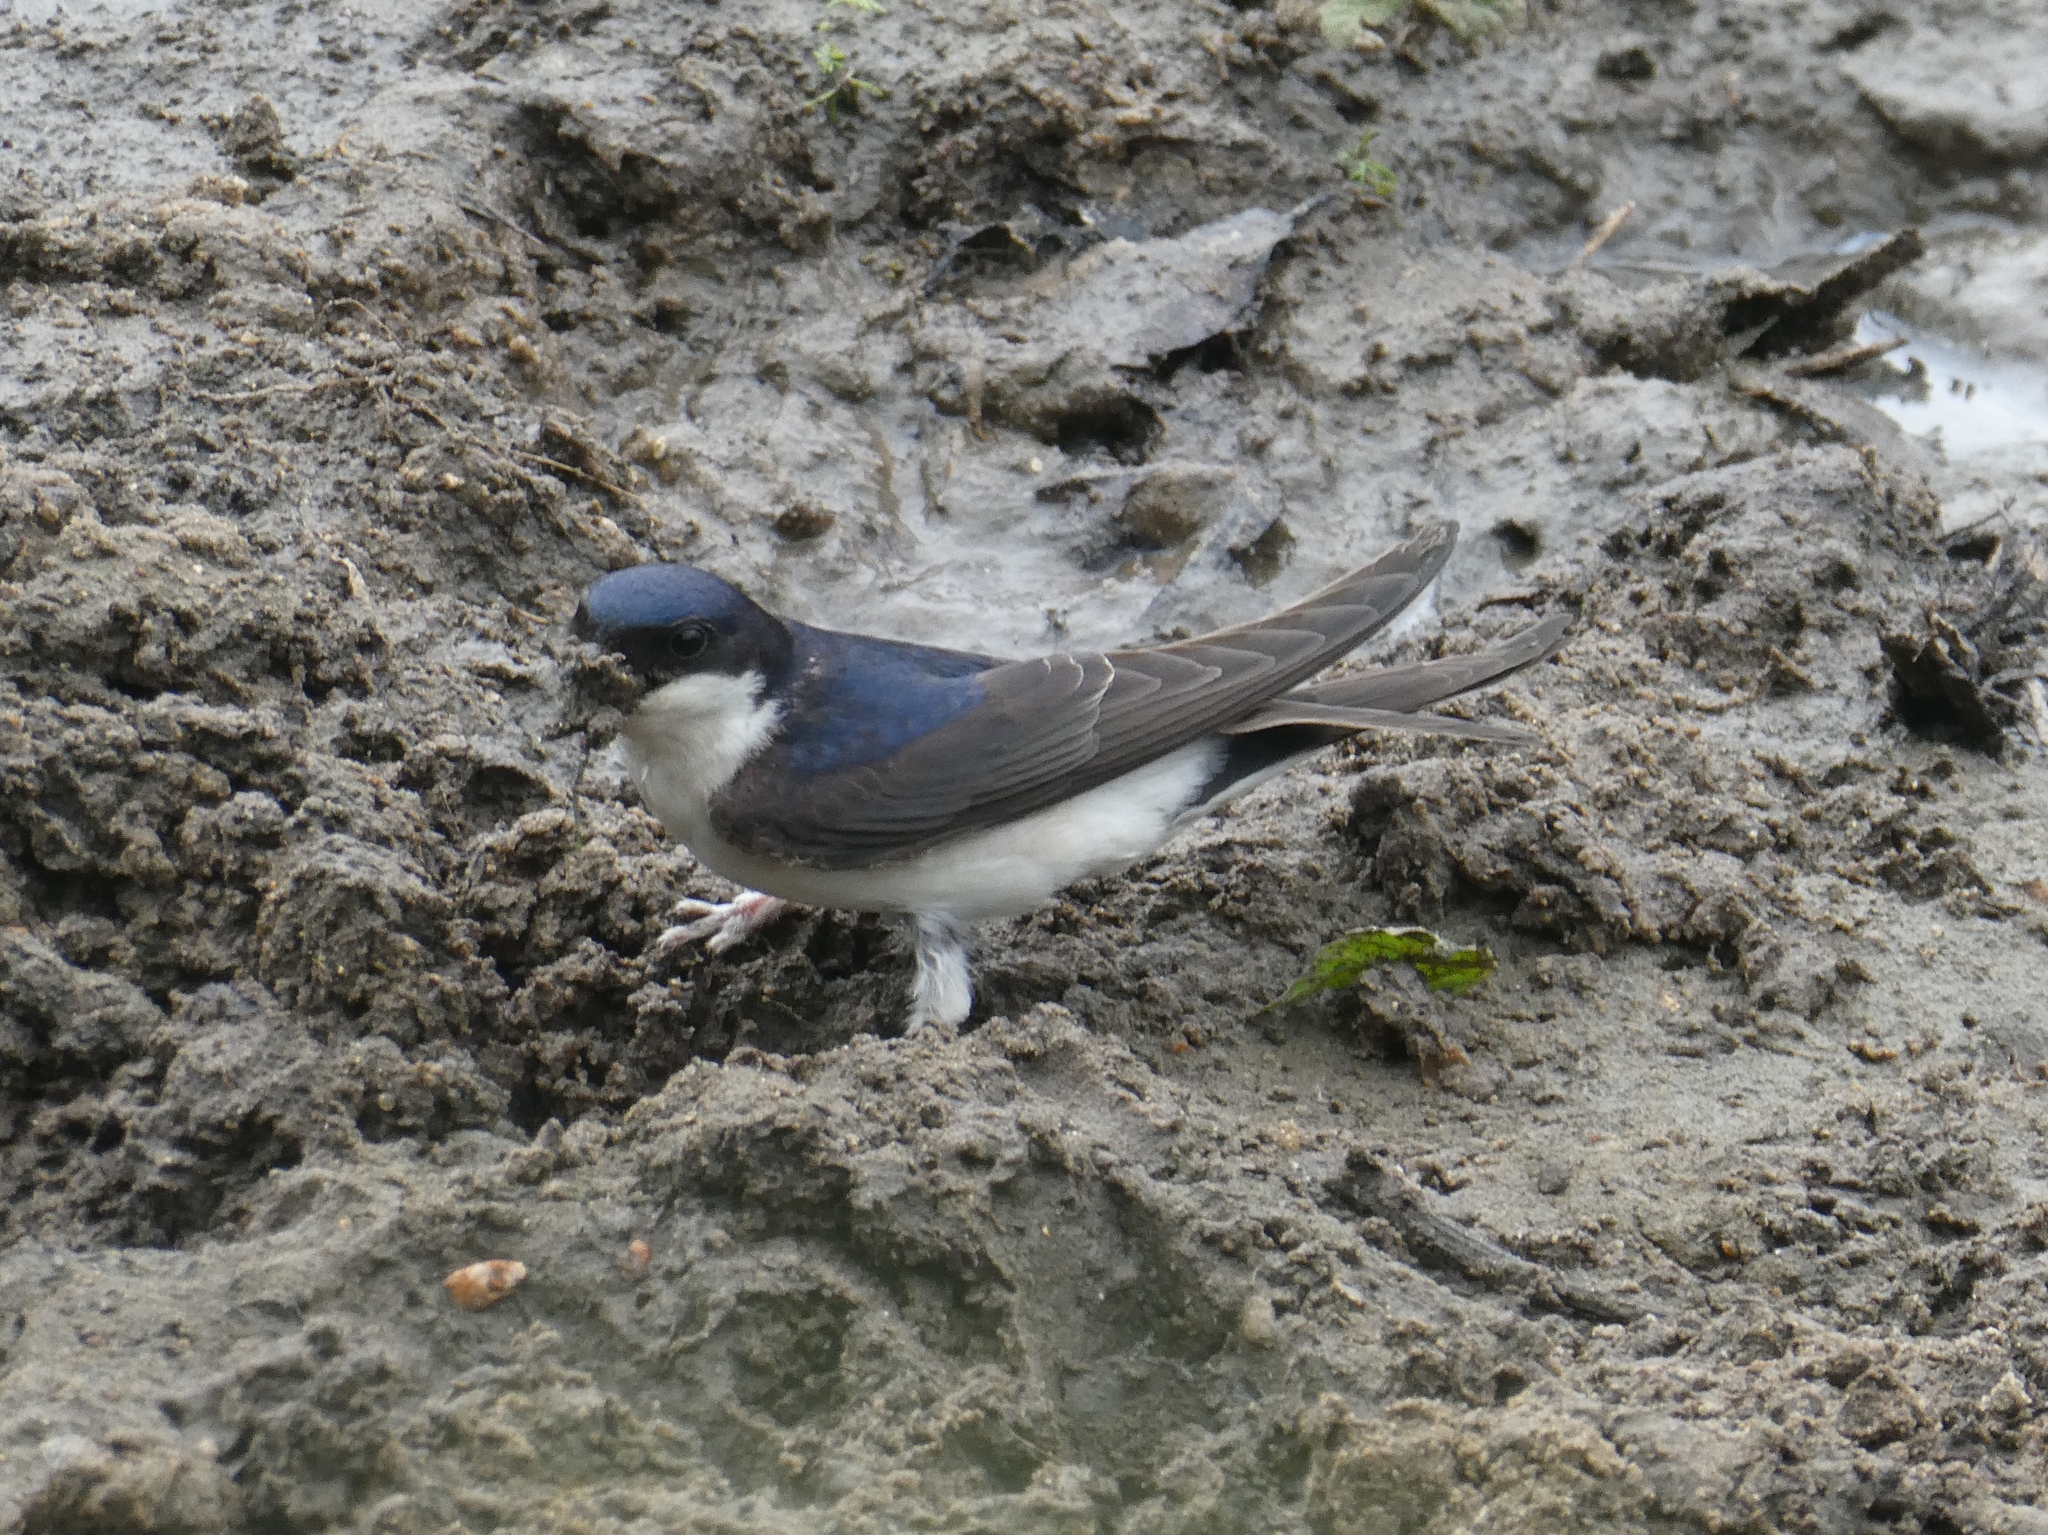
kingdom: Animalia
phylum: Chordata
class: Aves
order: Passeriformes
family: Hirundinidae
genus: Delichon
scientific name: Delichon urbicum
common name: Common house martin
